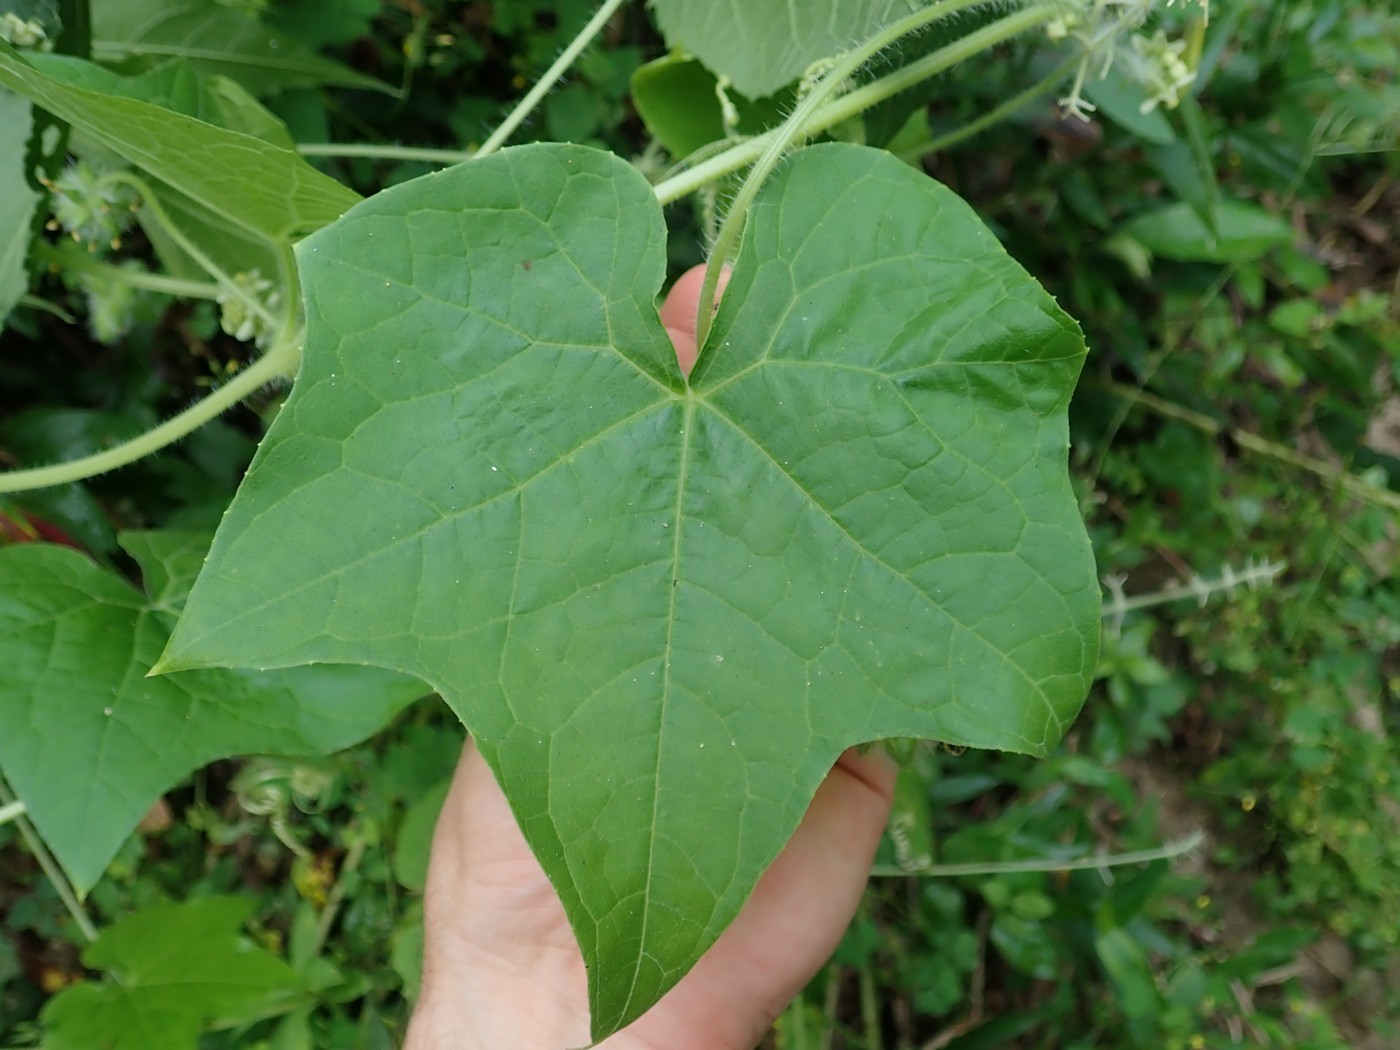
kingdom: Plantae
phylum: Tracheophyta
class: Magnoliopsida
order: Cucurbitales
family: Cucurbitaceae
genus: Sicyos
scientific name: Sicyos angulatus
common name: Angled burr cucumber
